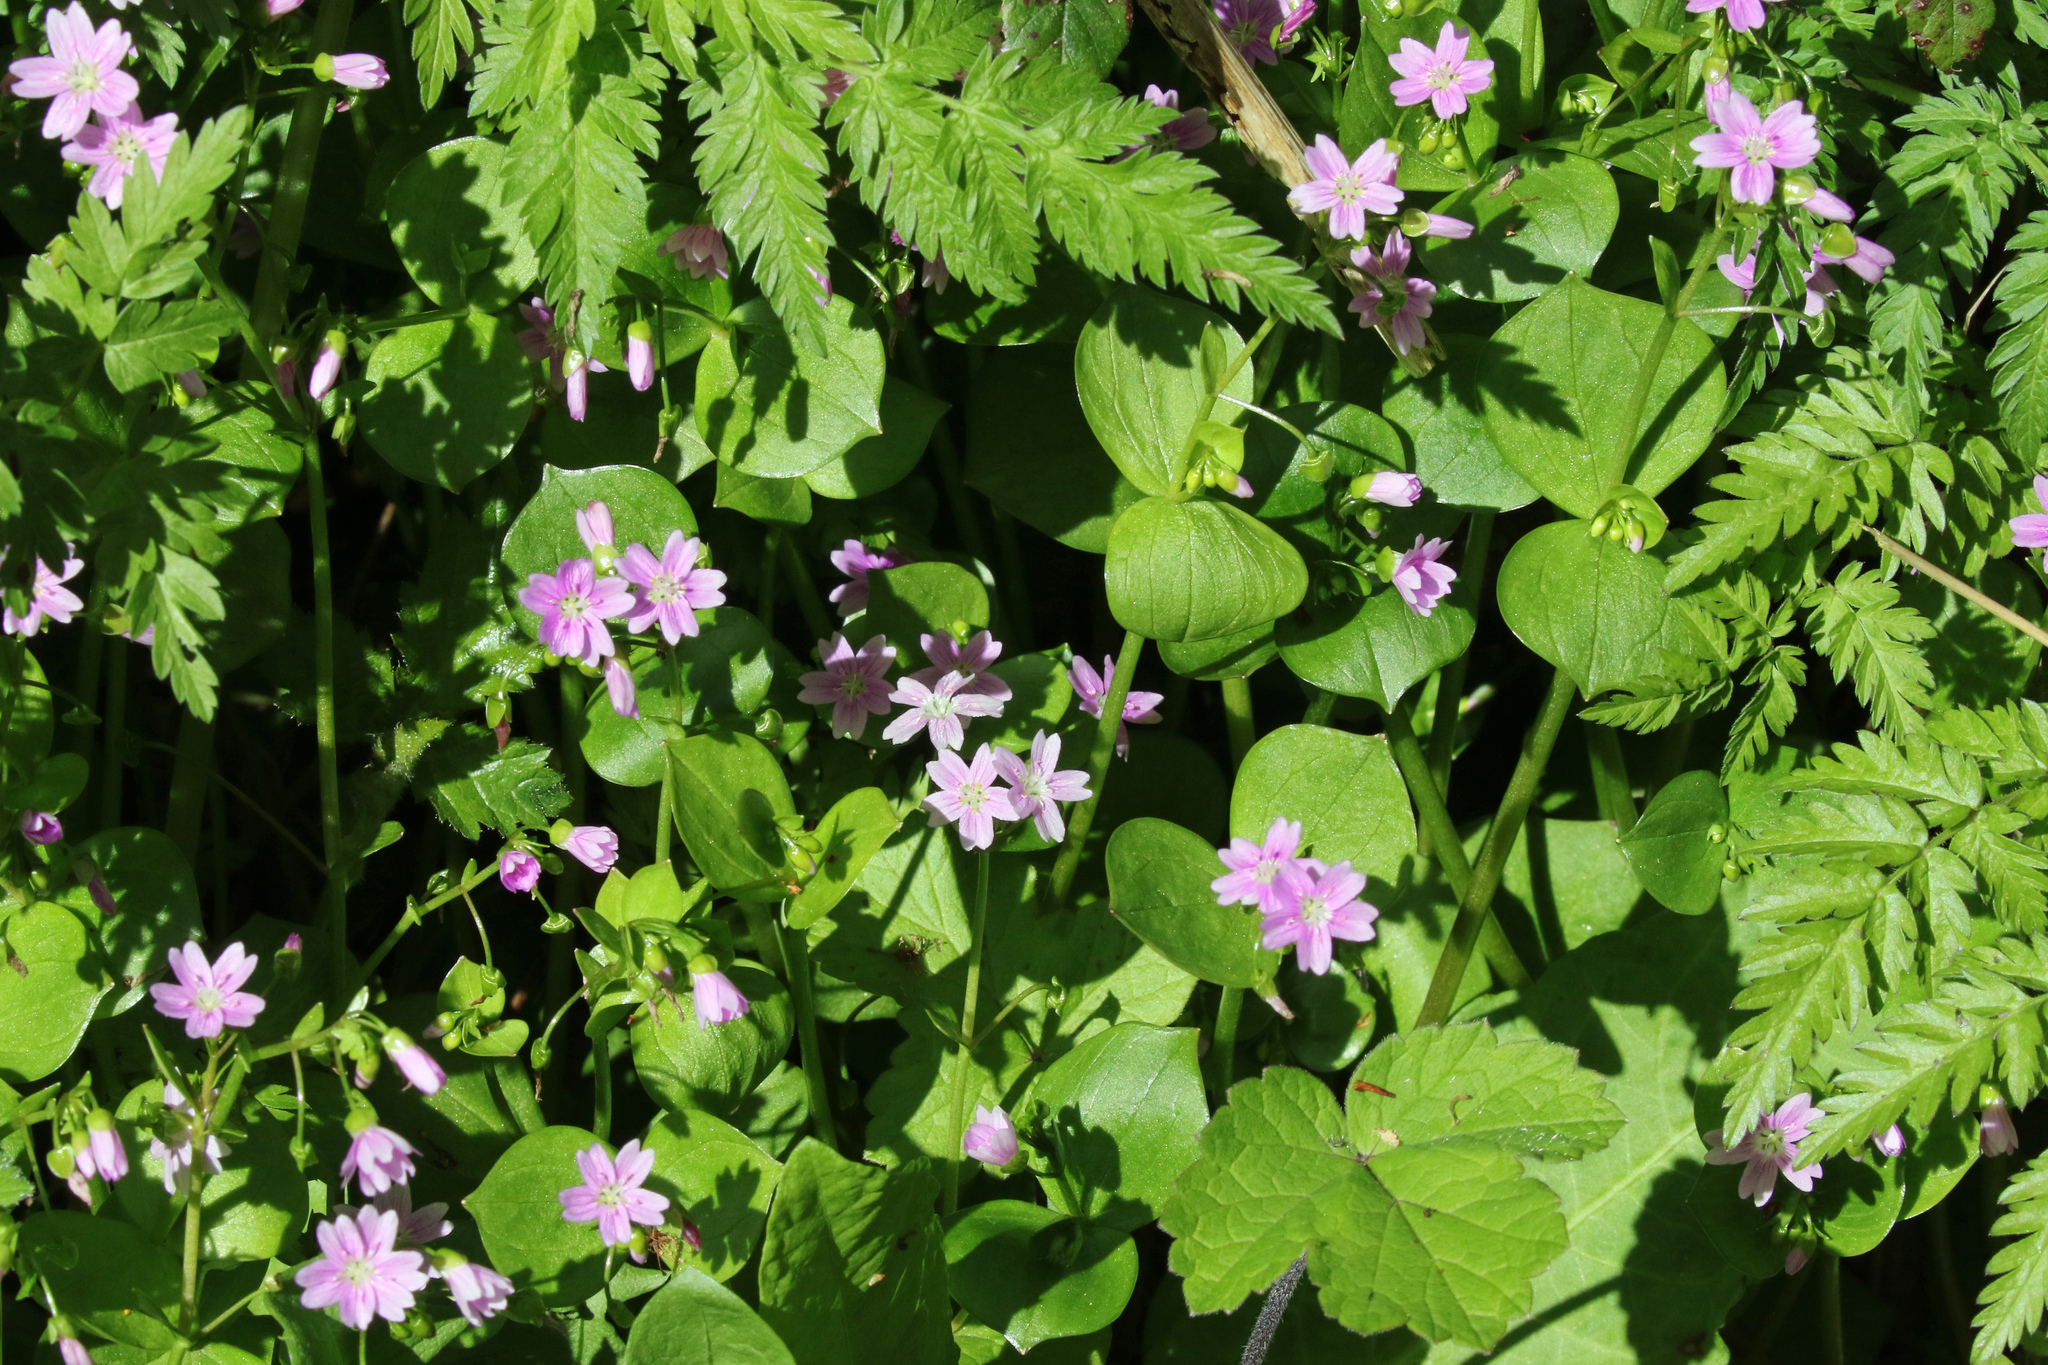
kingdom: Plantae
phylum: Tracheophyta
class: Magnoliopsida
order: Caryophyllales
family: Montiaceae
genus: Claytonia
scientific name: Claytonia sibirica
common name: Pink purslane
